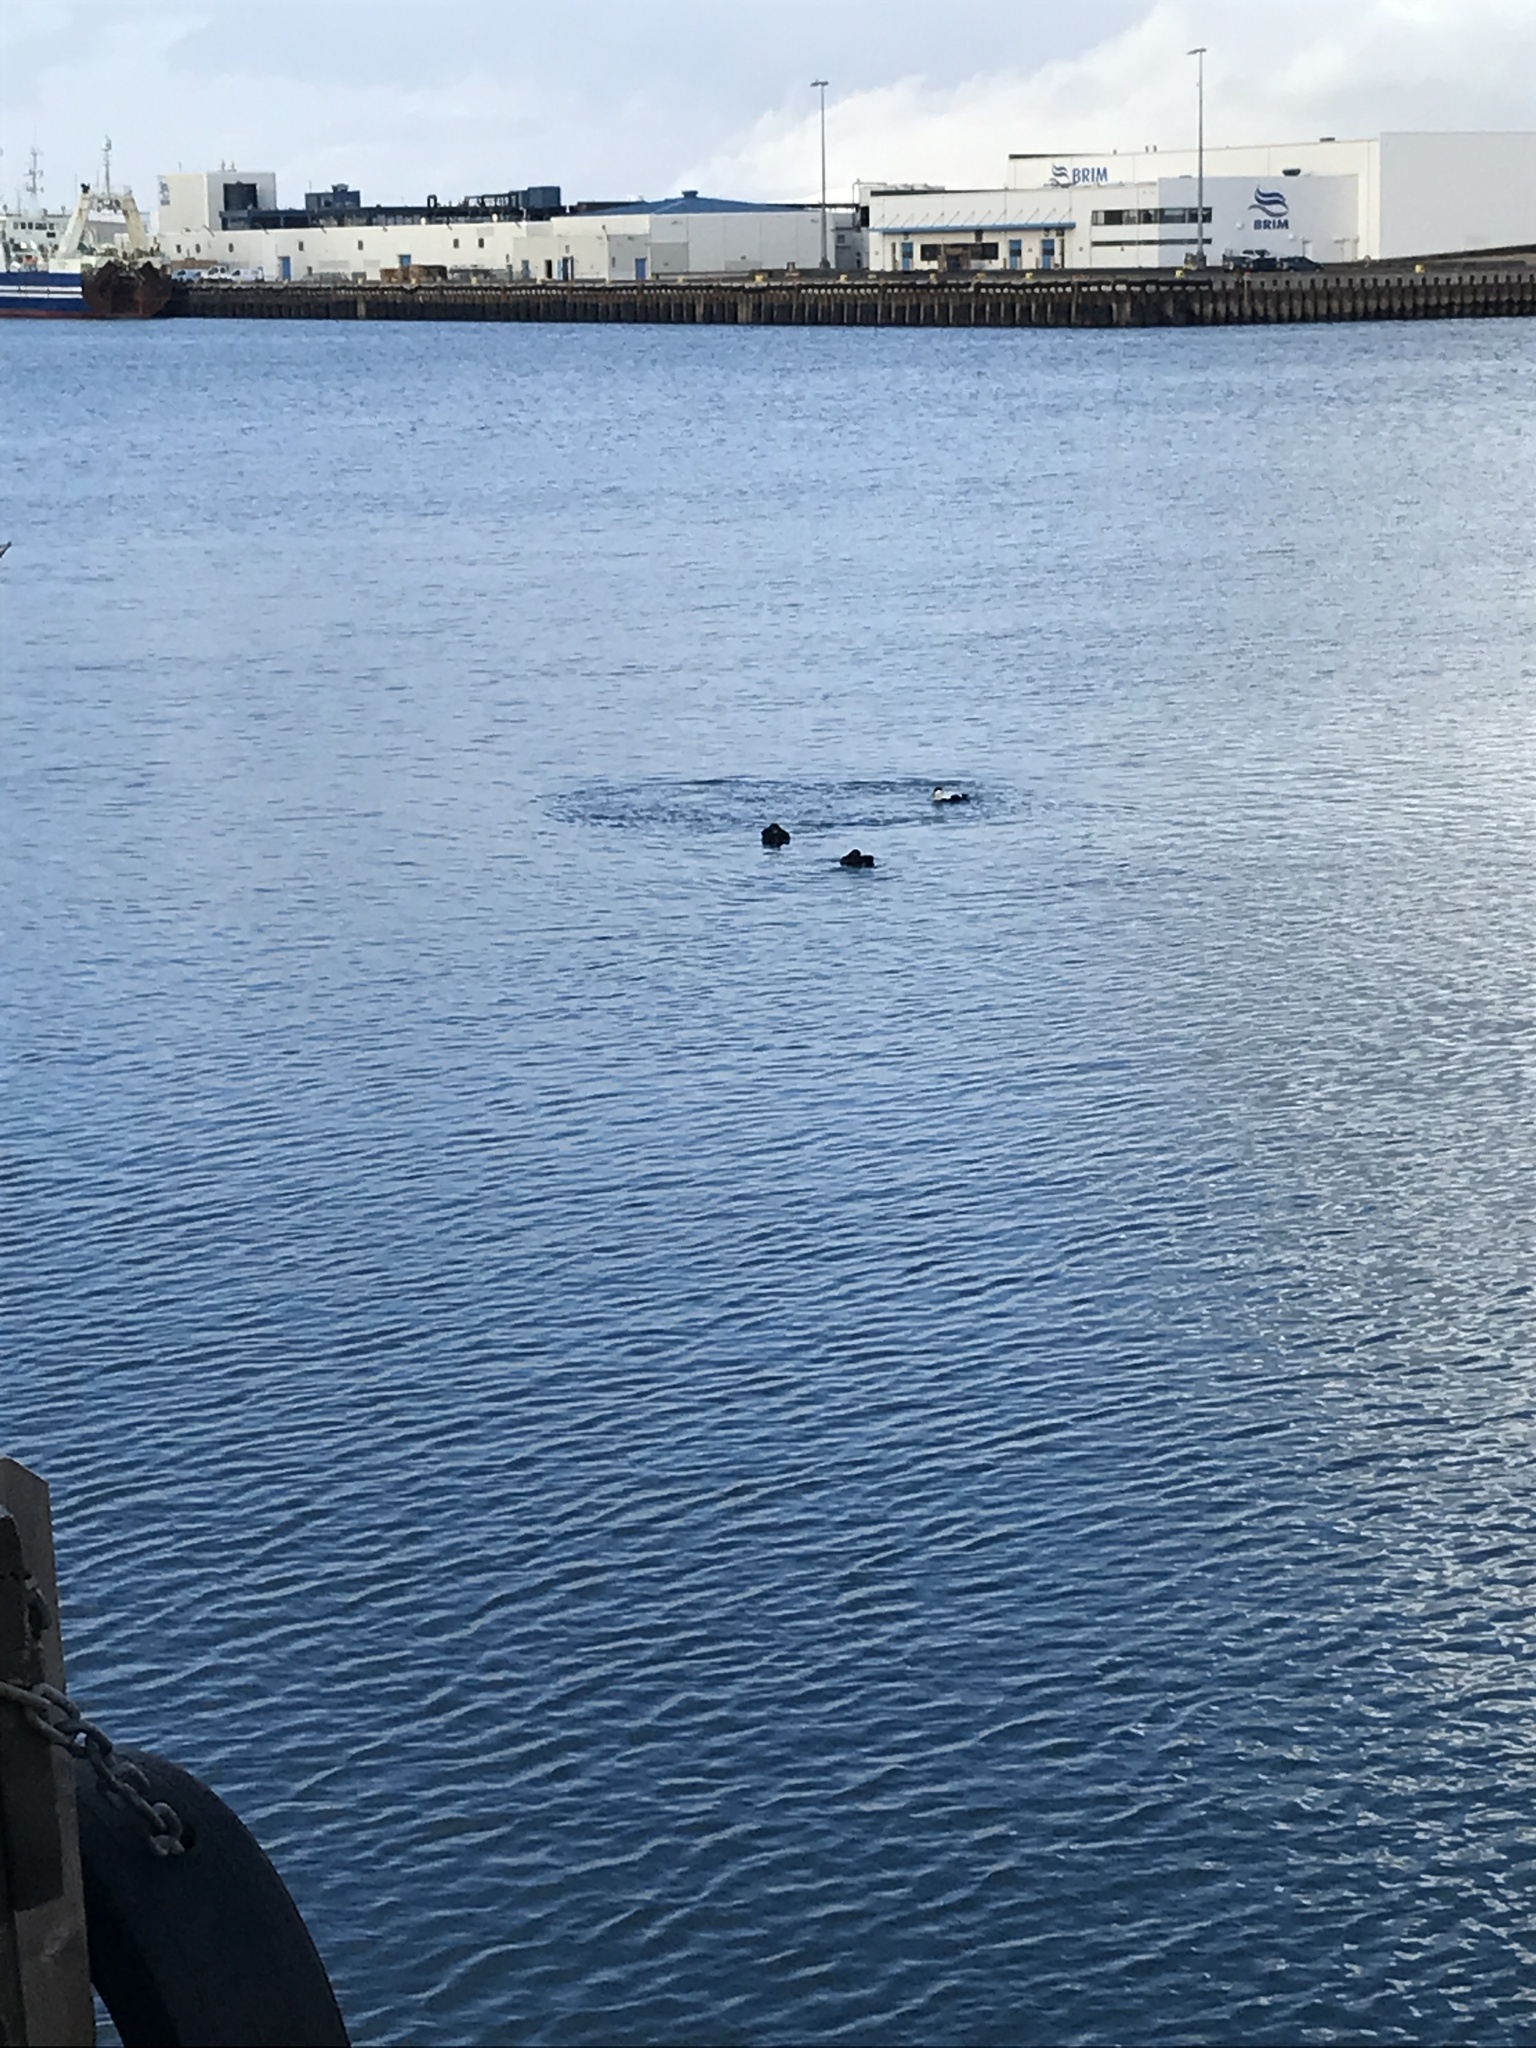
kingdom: Animalia
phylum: Chordata
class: Aves
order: Anseriformes
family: Anatidae
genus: Somateria
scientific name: Somateria mollissima
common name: Common eider
